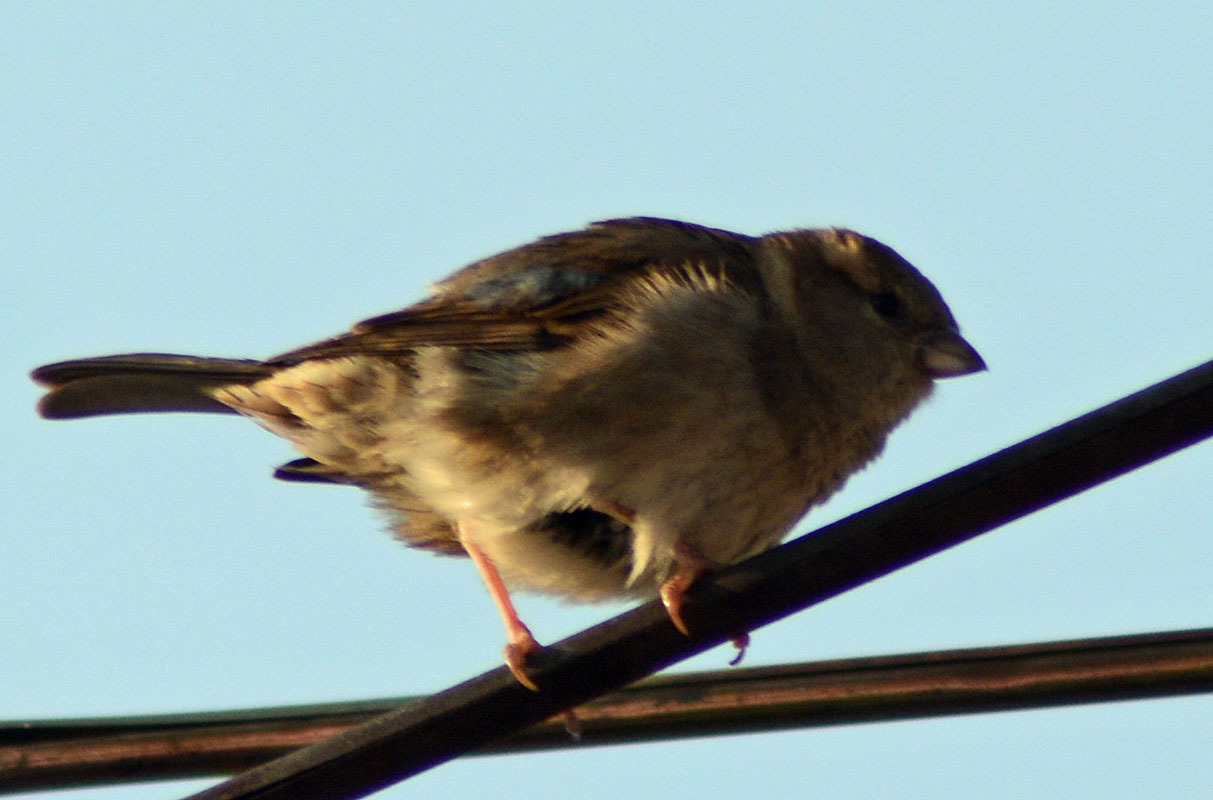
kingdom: Animalia
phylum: Chordata
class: Aves
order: Passeriformes
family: Passeridae
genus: Passer
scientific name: Passer domesticus
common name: House sparrow
